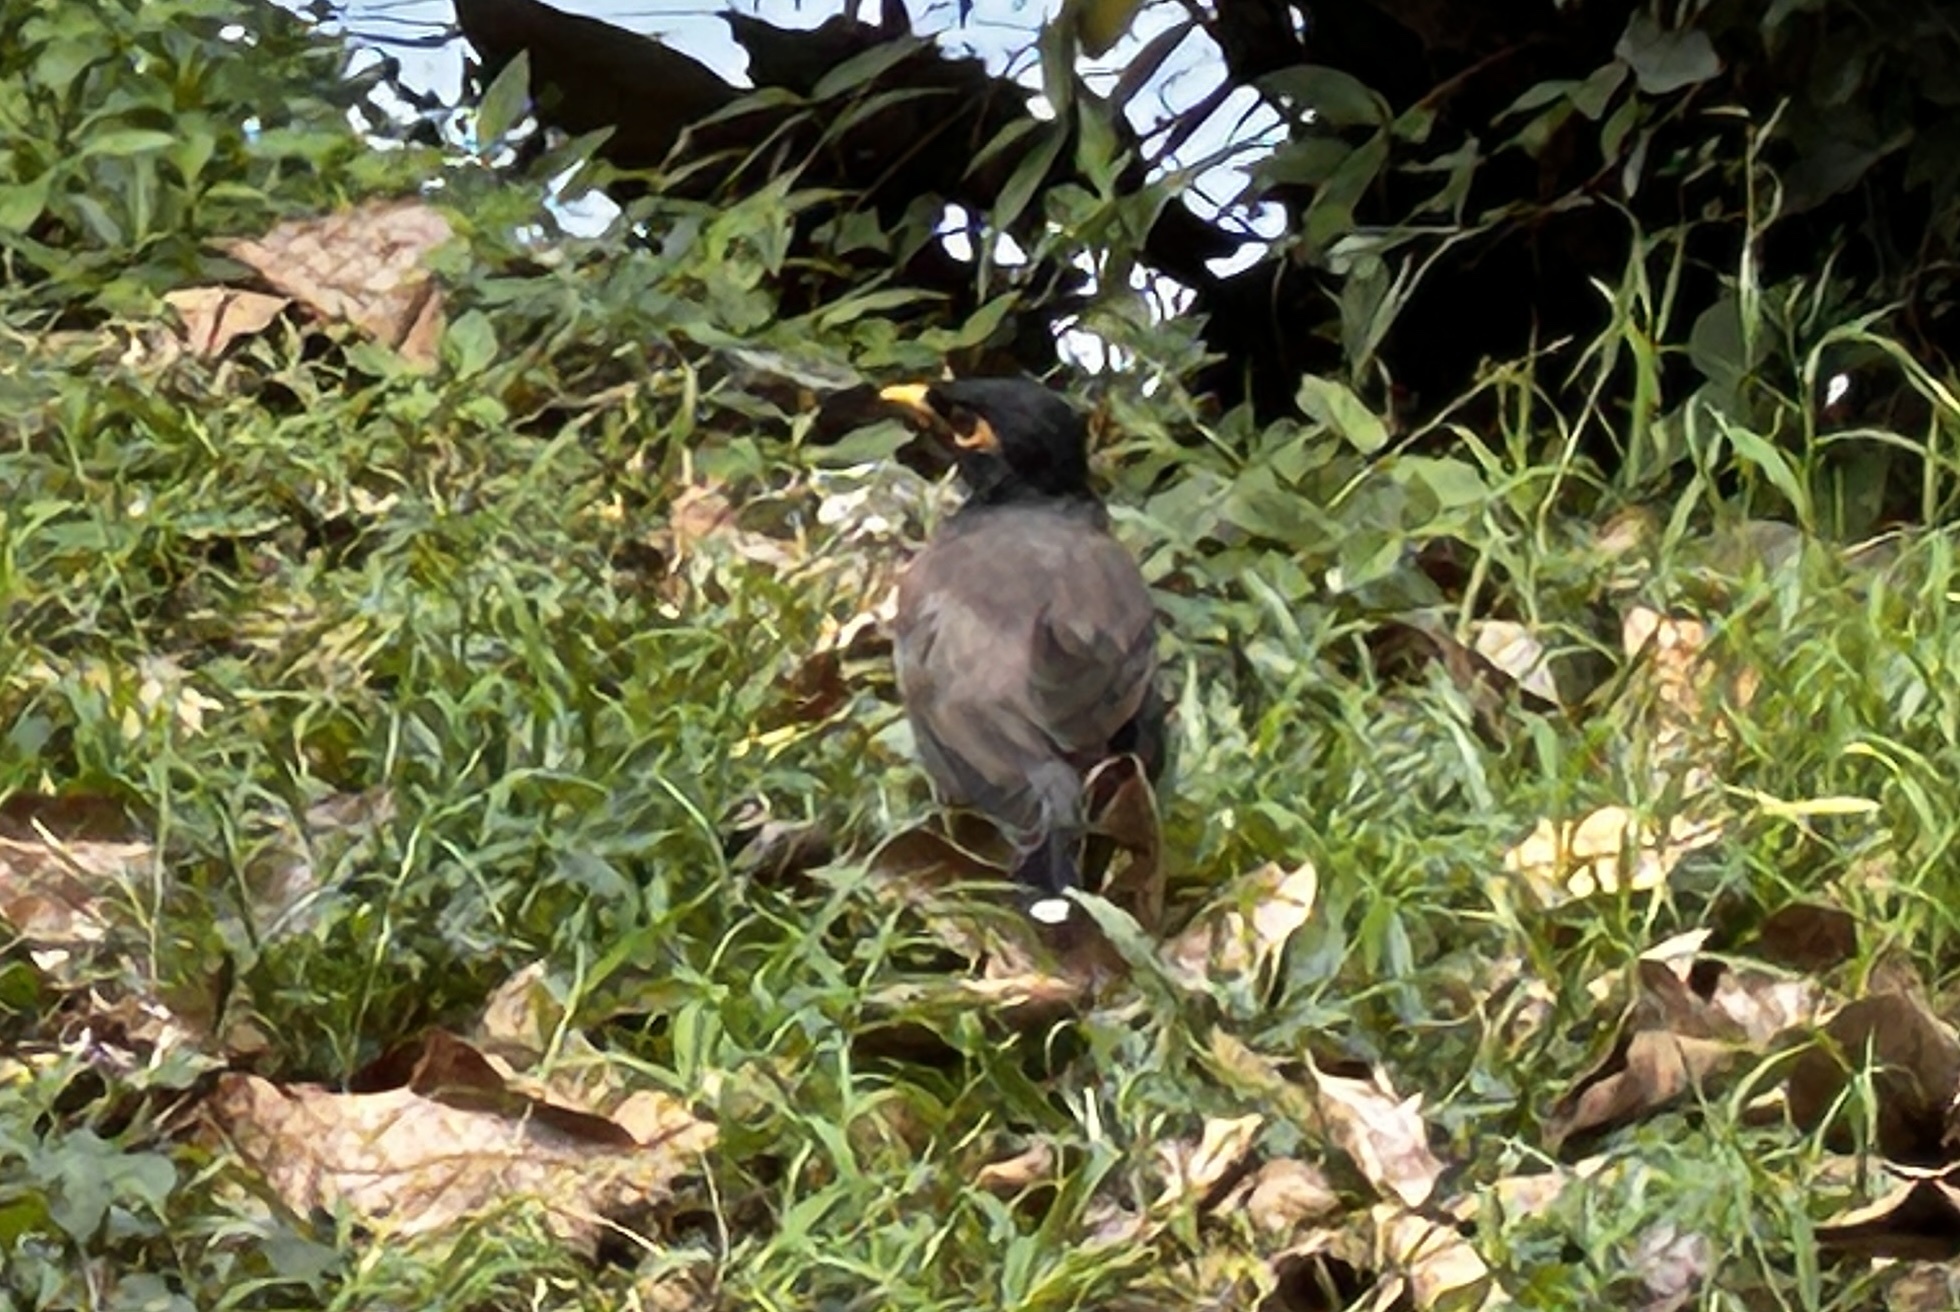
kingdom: Animalia
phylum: Chordata
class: Aves
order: Passeriformes
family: Sturnidae
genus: Acridotheres
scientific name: Acridotheres tristis
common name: Common myna
